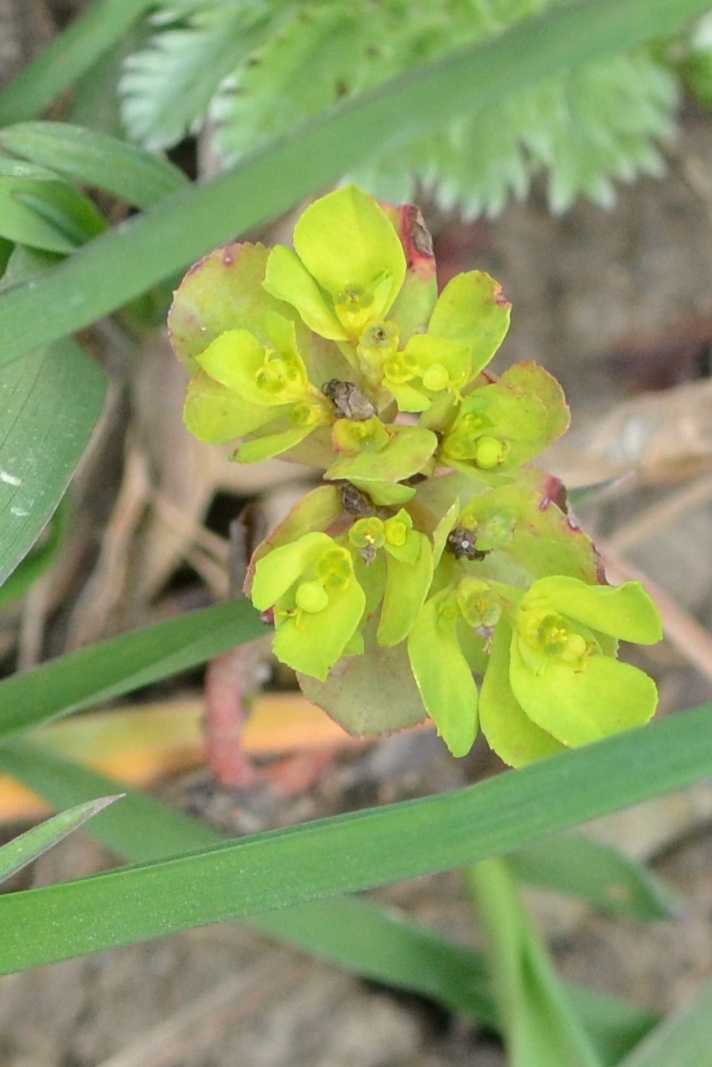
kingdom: Plantae
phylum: Tracheophyta
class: Magnoliopsida
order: Malpighiales
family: Euphorbiaceae
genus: Euphorbia
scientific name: Euphorbia helioscopia
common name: Sun spurge
